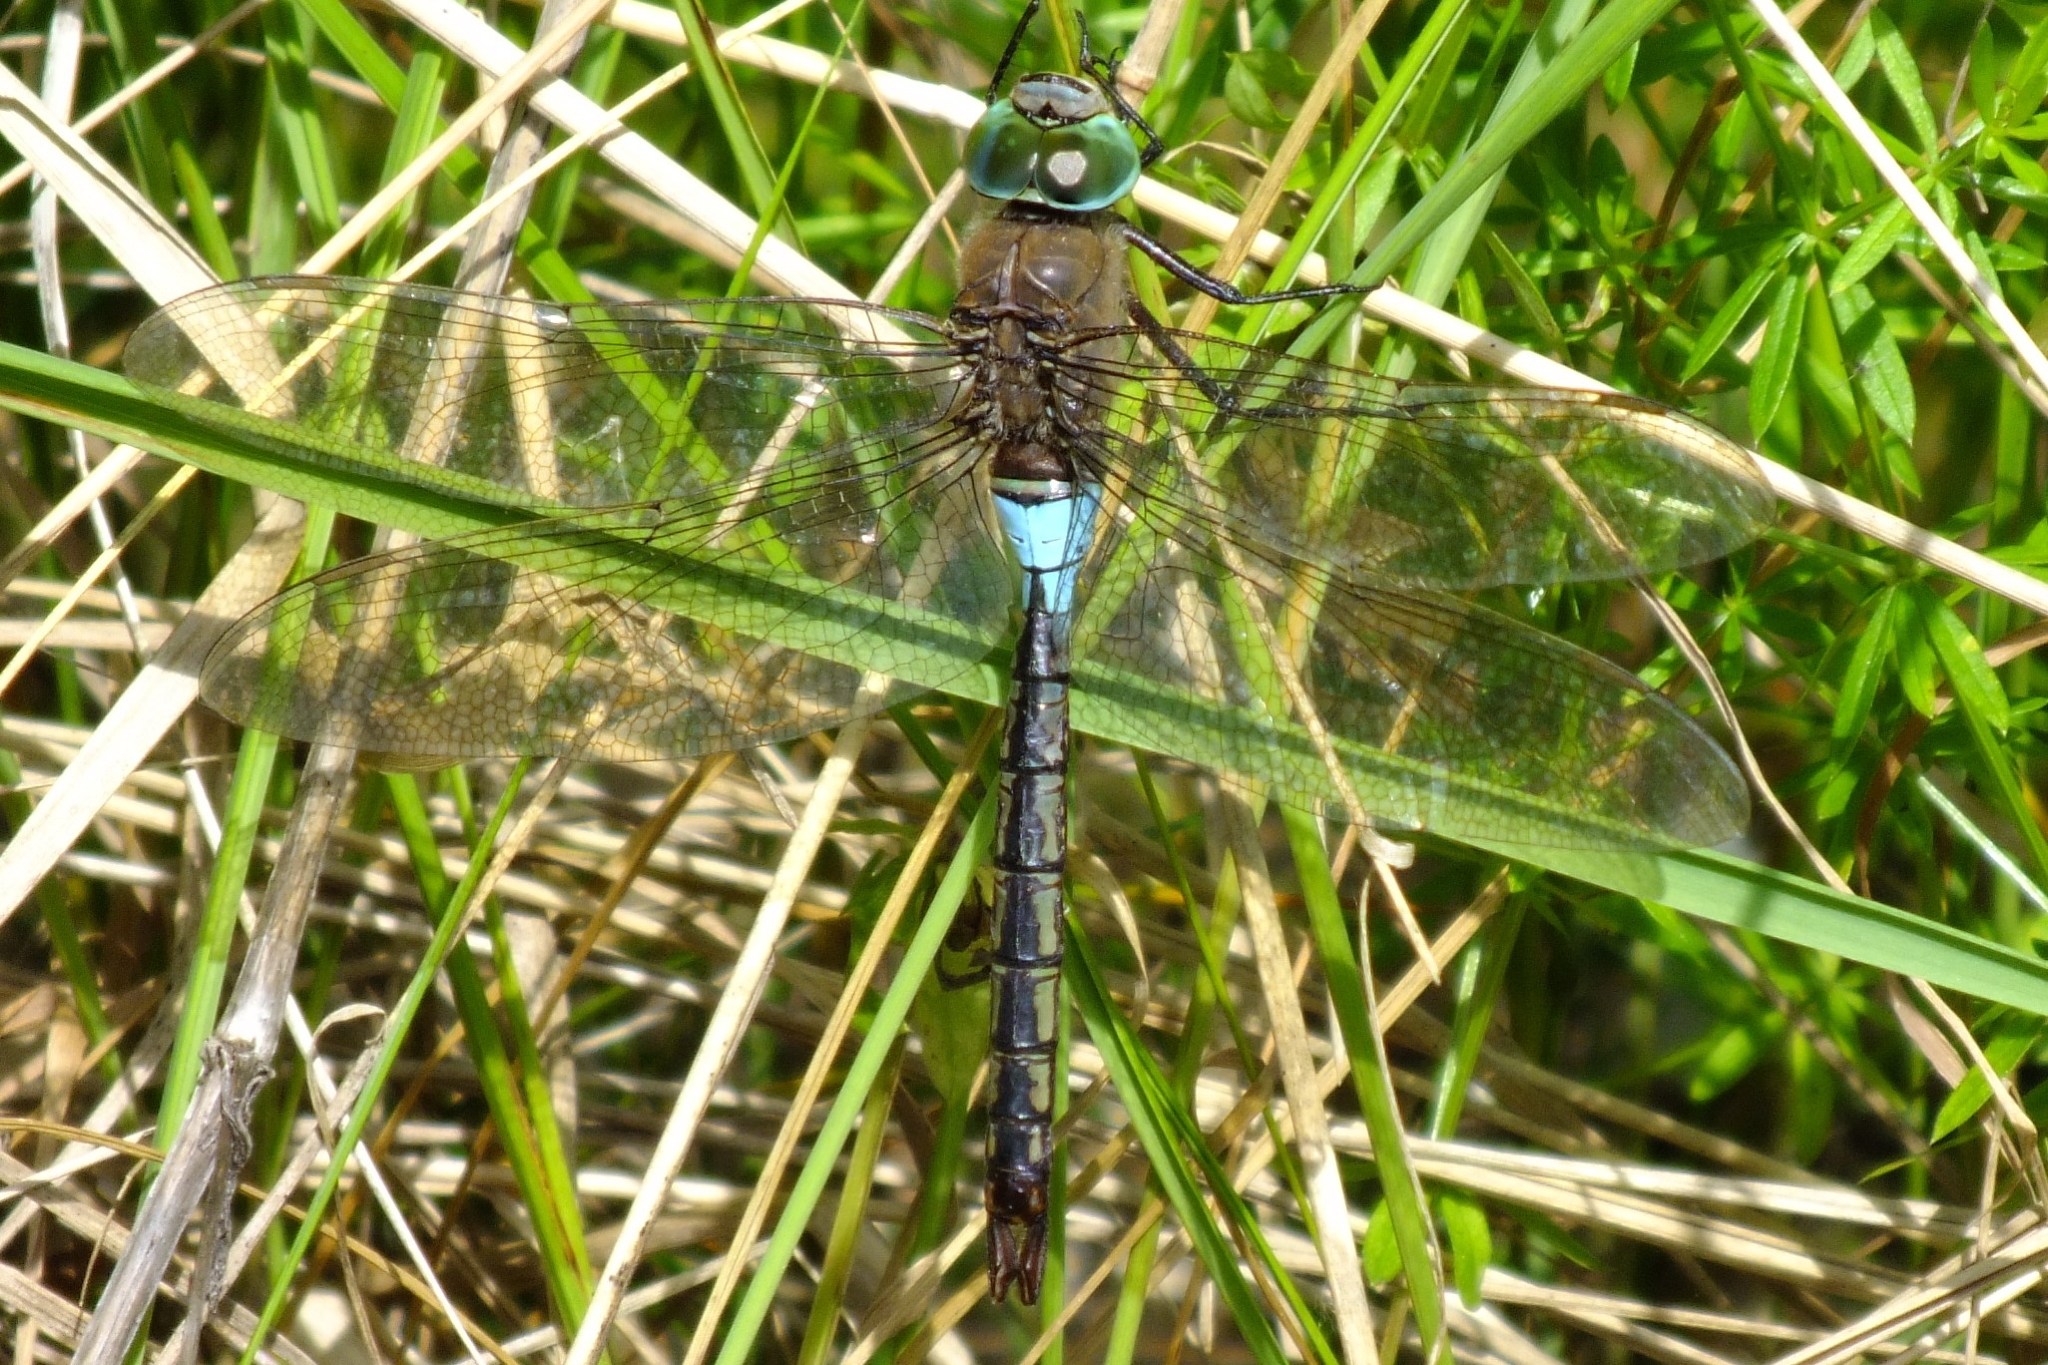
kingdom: Animalia
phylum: Arthropoda
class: Insecta
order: Odonata
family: Aeshnidae
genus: Anax
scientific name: Anax parthenope
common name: Lesser emperor
